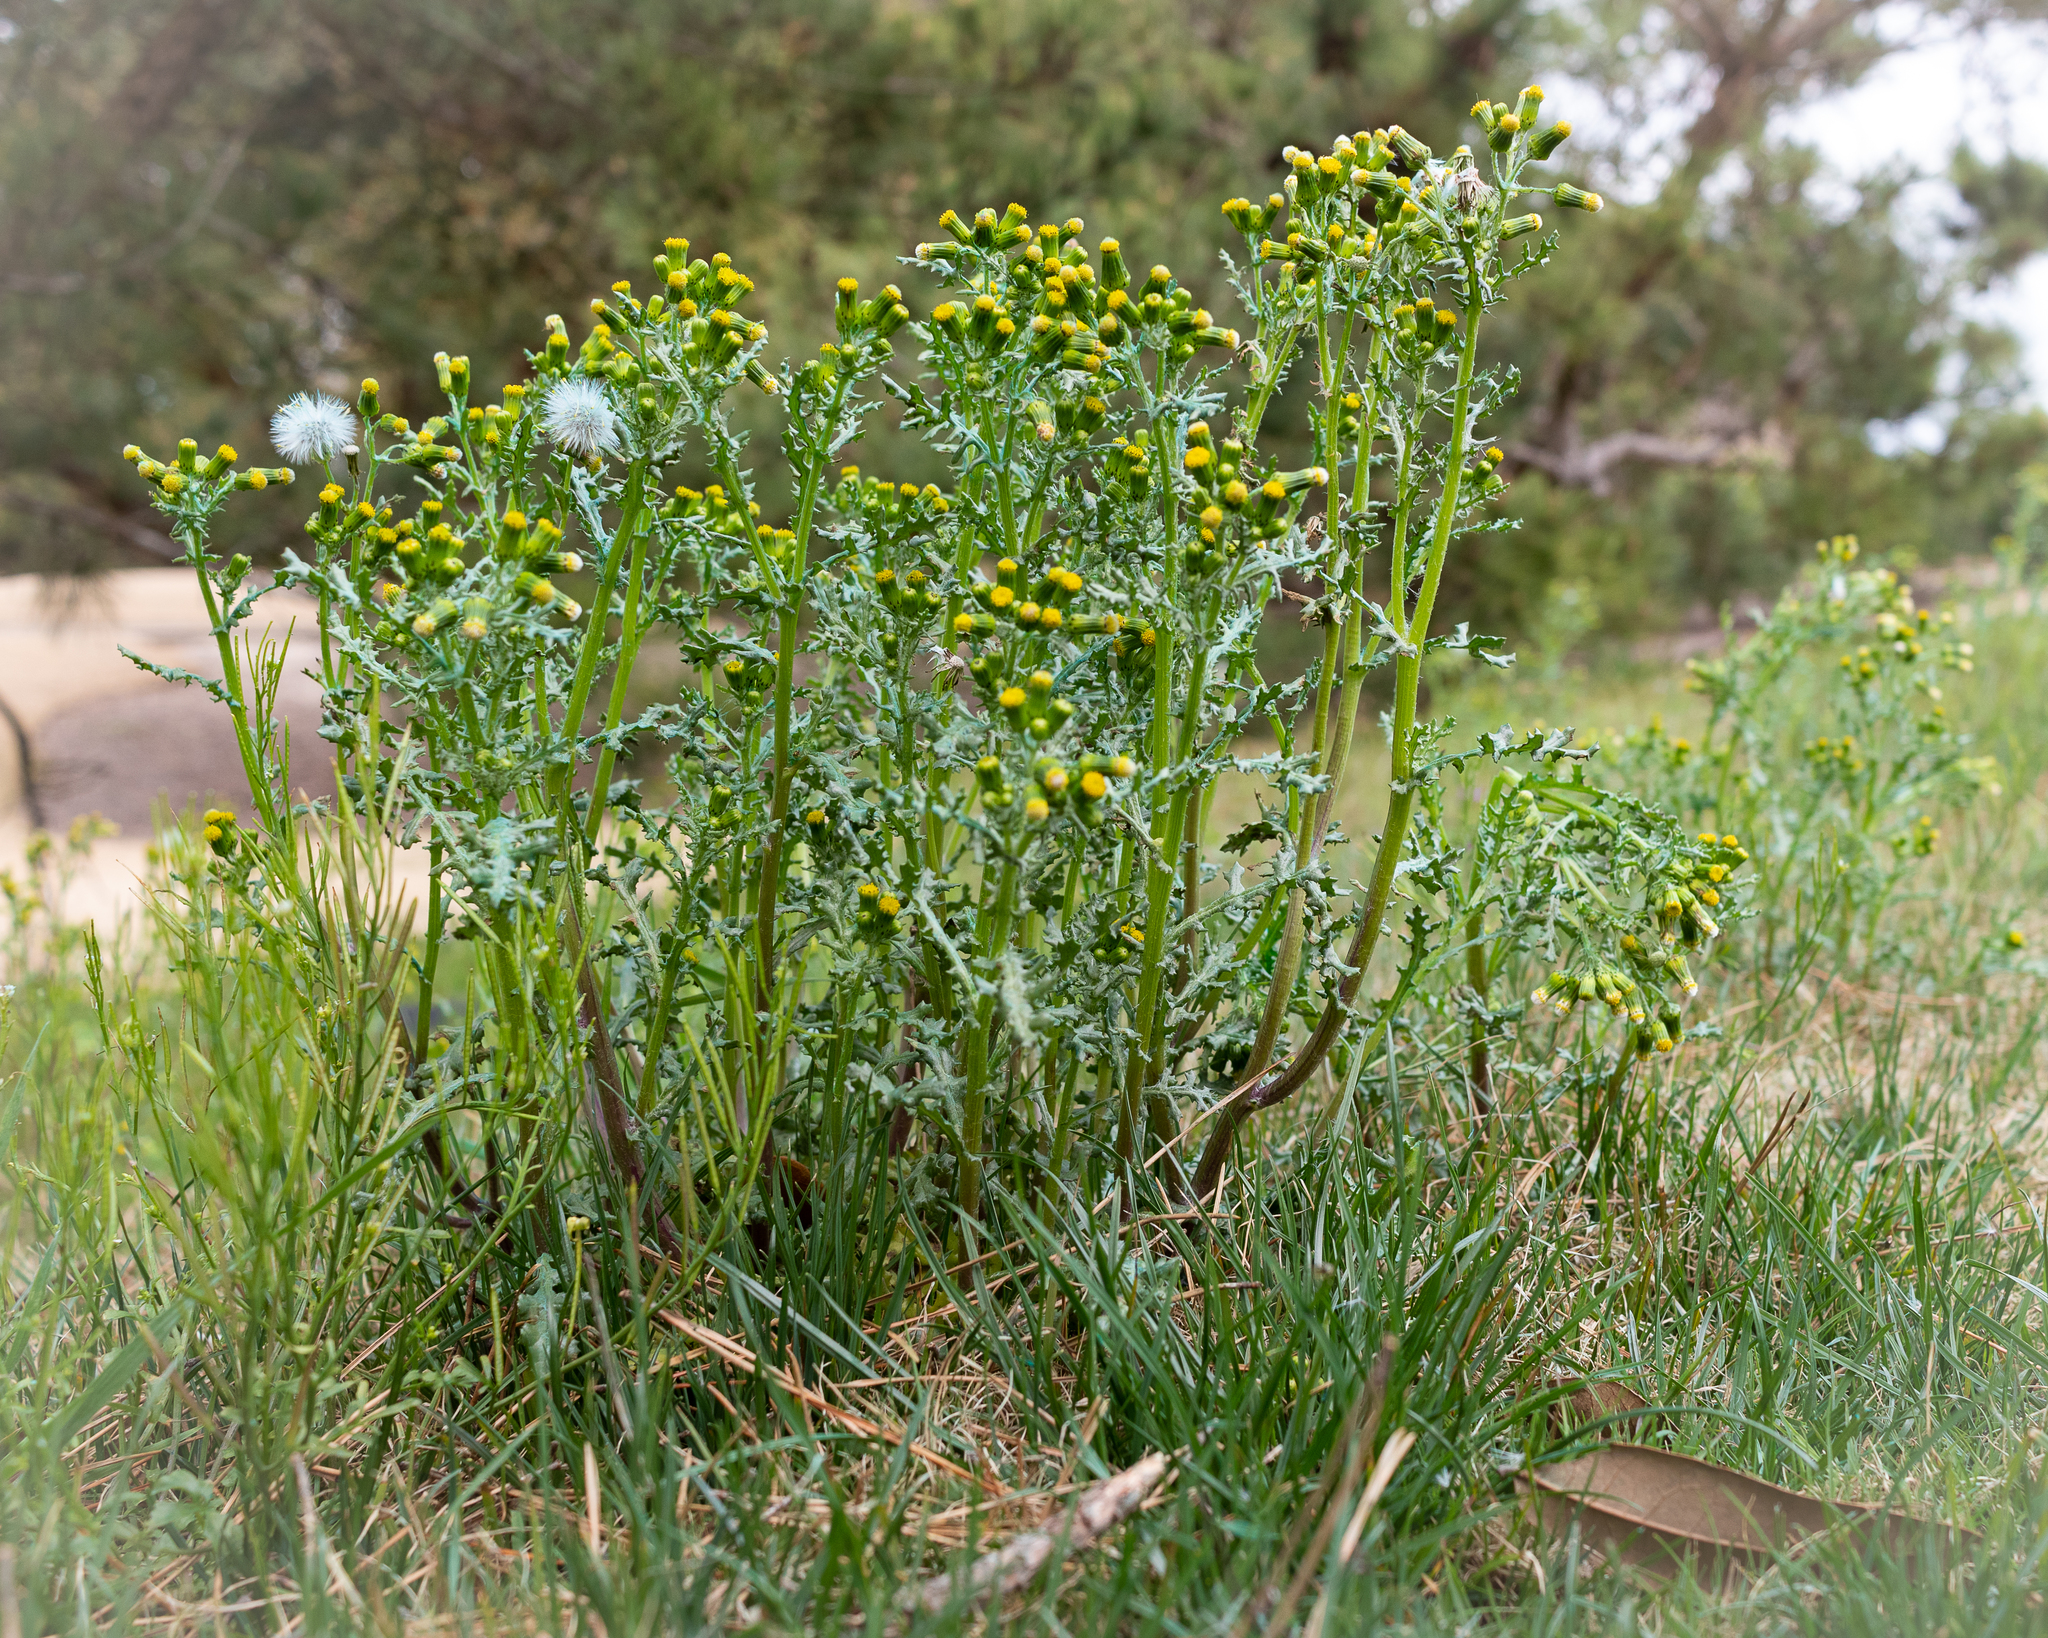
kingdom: Plantae
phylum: Tracheophyta
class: Magnoliopsida
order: Asterales
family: Asteraceae
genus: Senecio
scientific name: Senecio vulgaris
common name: Old-man-in-the-spring
